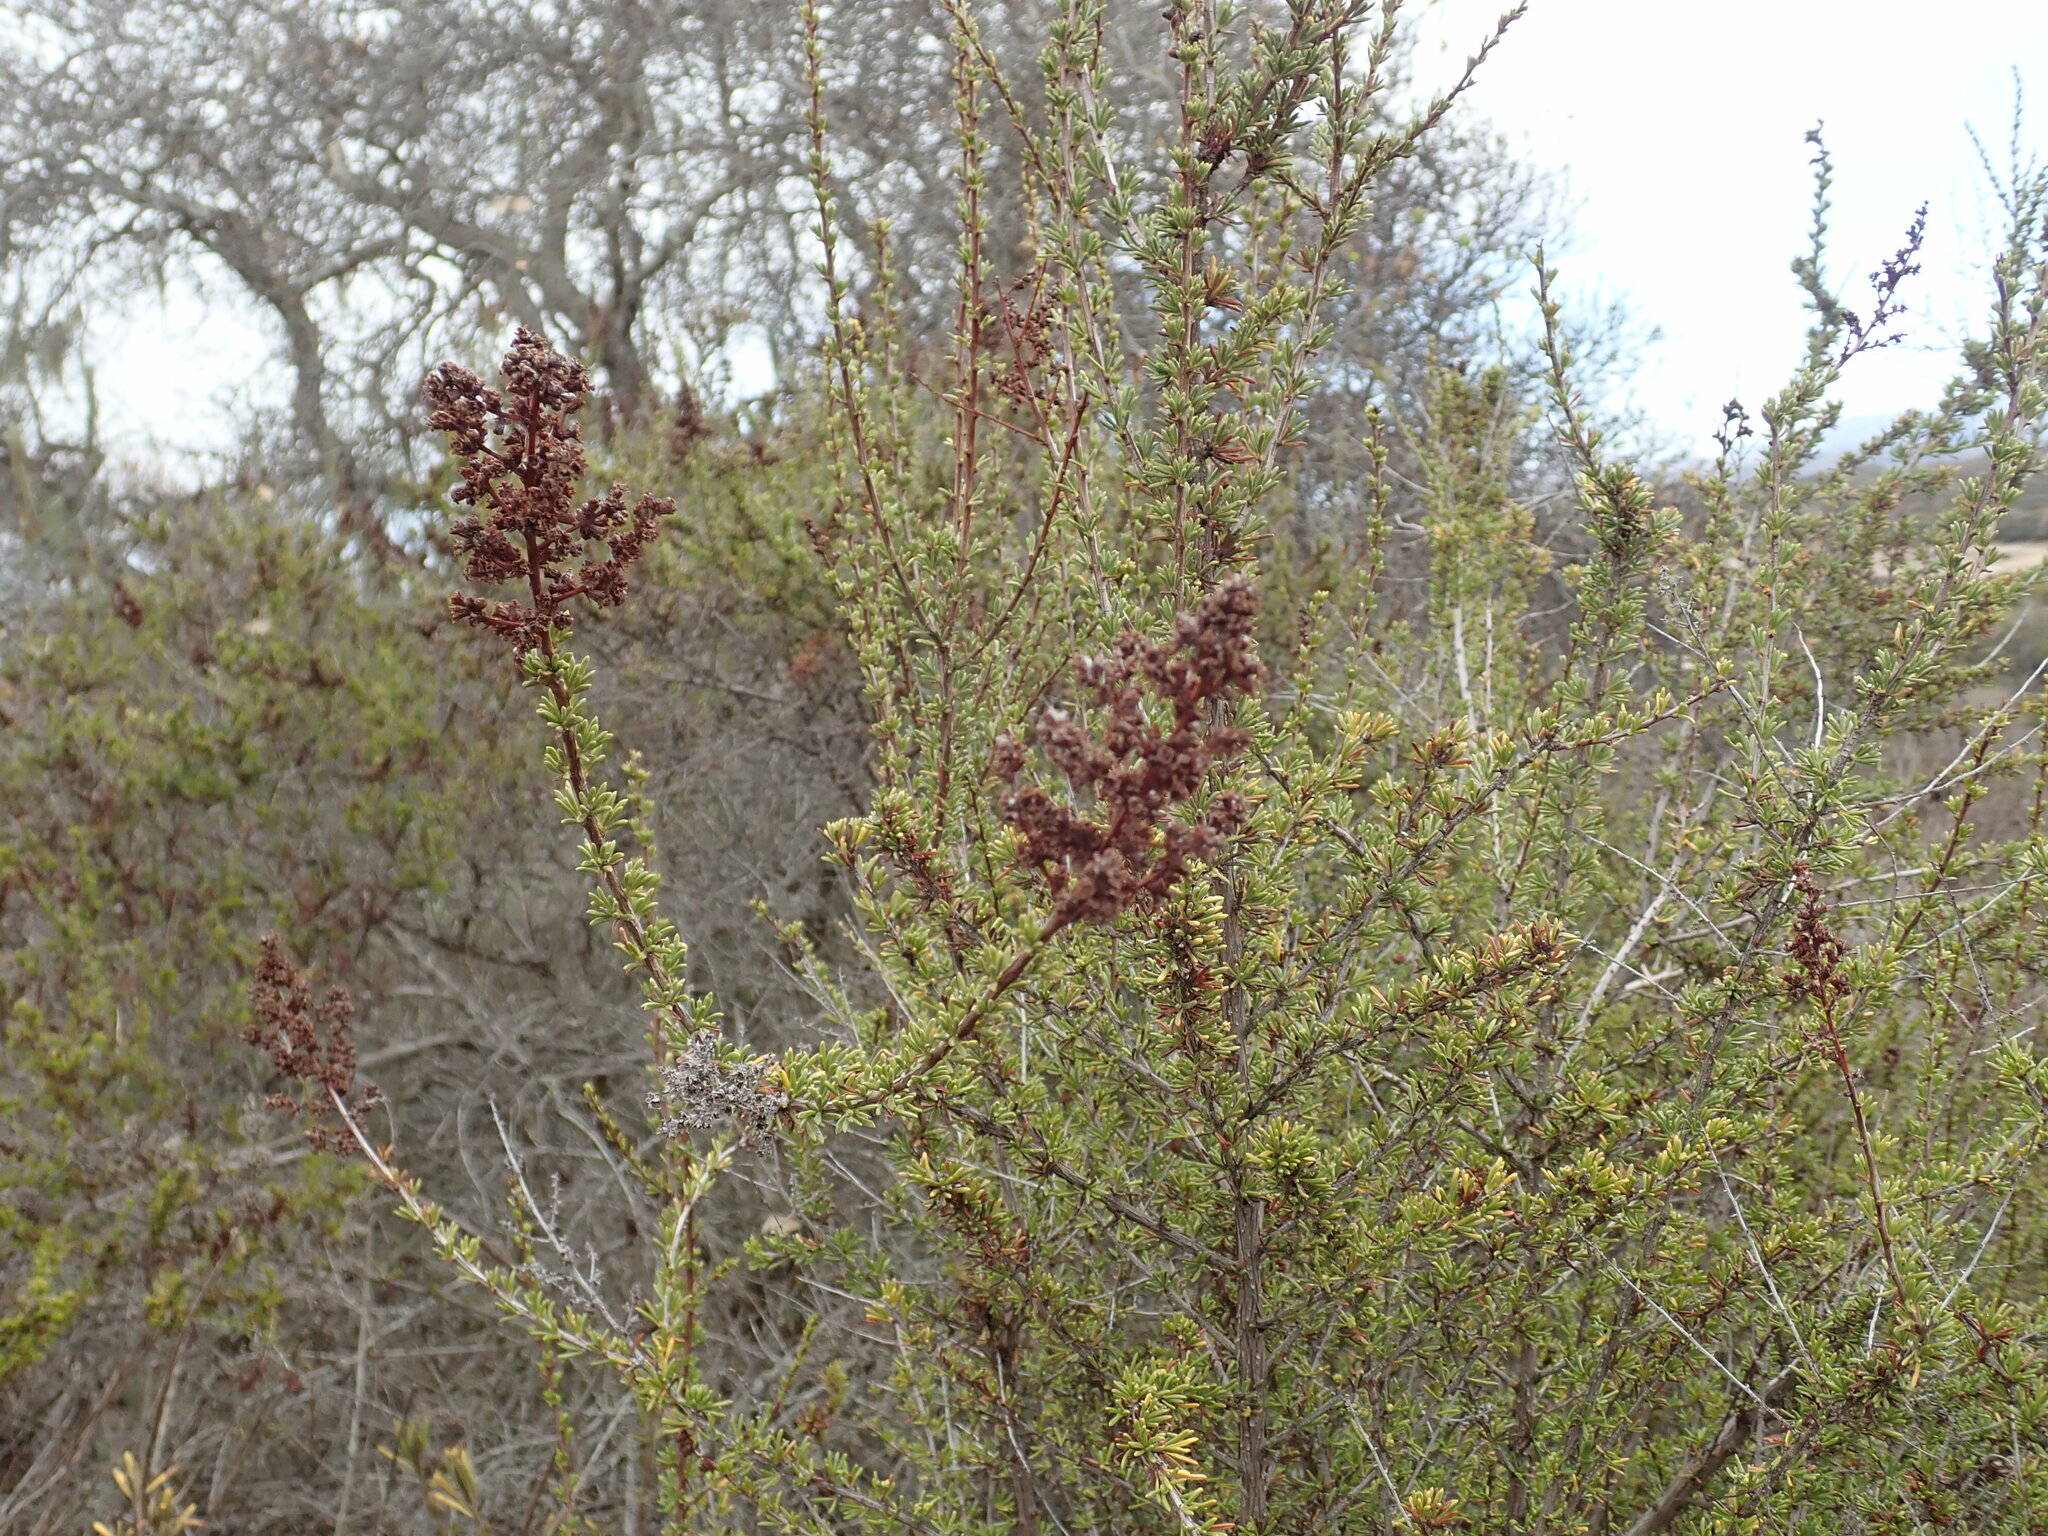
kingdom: Plantae
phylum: Tracheophyta
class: Magnoliopsida
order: Rosales
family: Rosaceae
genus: Adenostoma
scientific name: Adenostoma fasciculatum
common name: Chamise
